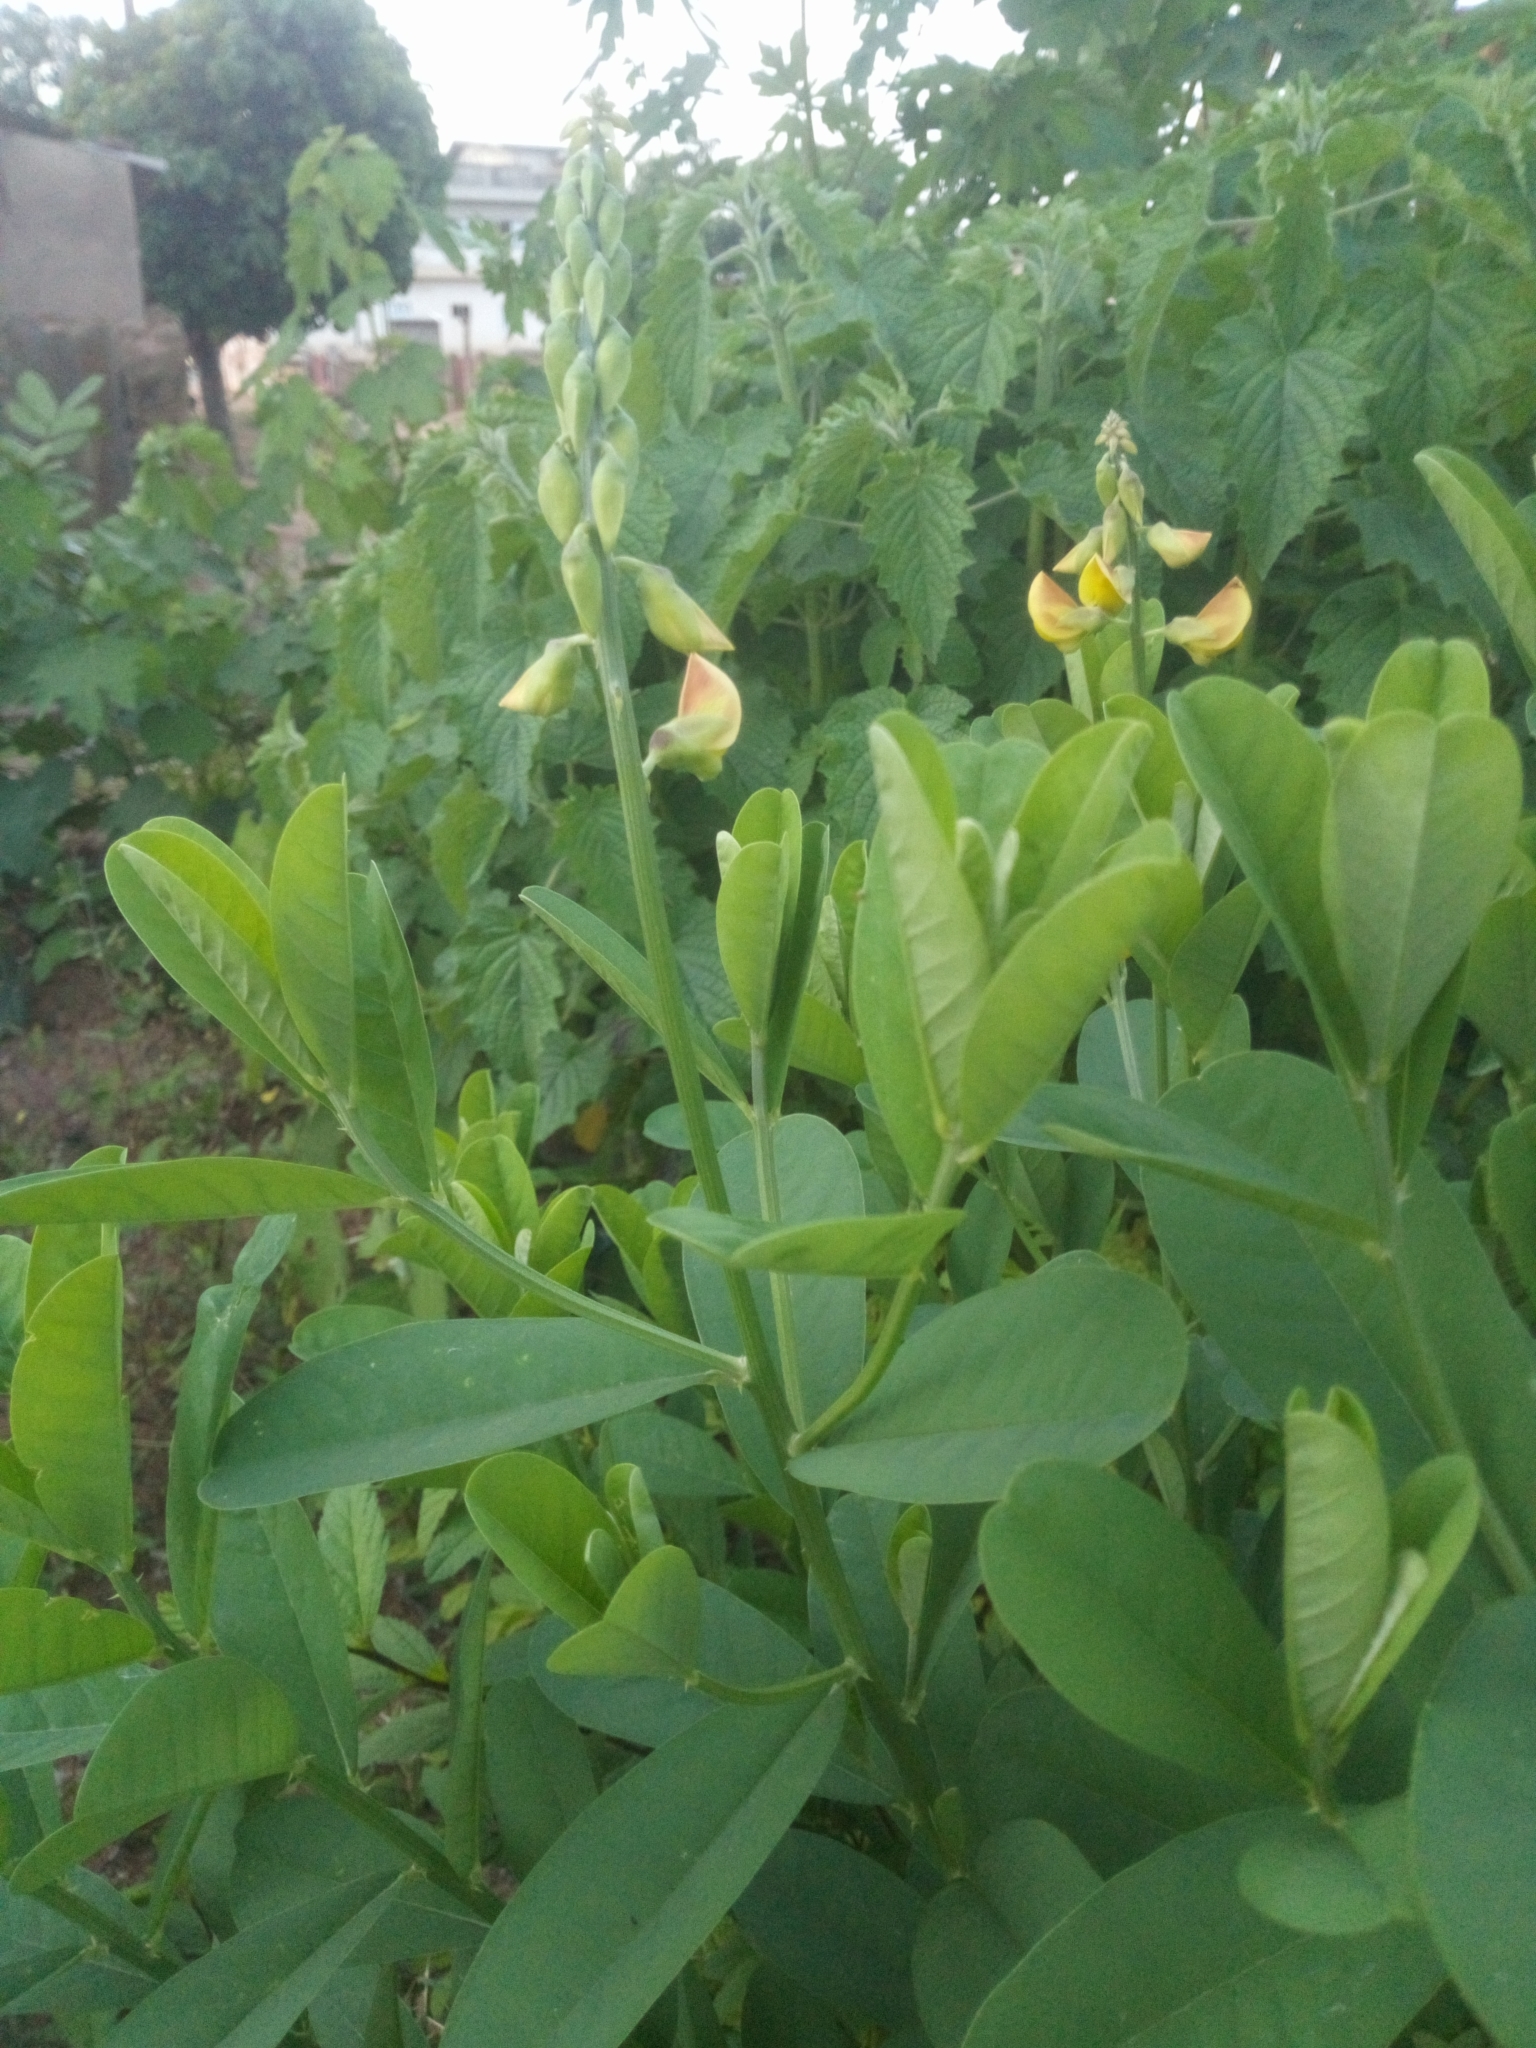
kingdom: Plantae
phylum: Tracheophyta
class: Magnoliopsida
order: Fabales
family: Fabaceae
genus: Crotalaria
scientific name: Crotalaria retusa
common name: Rattleweed
